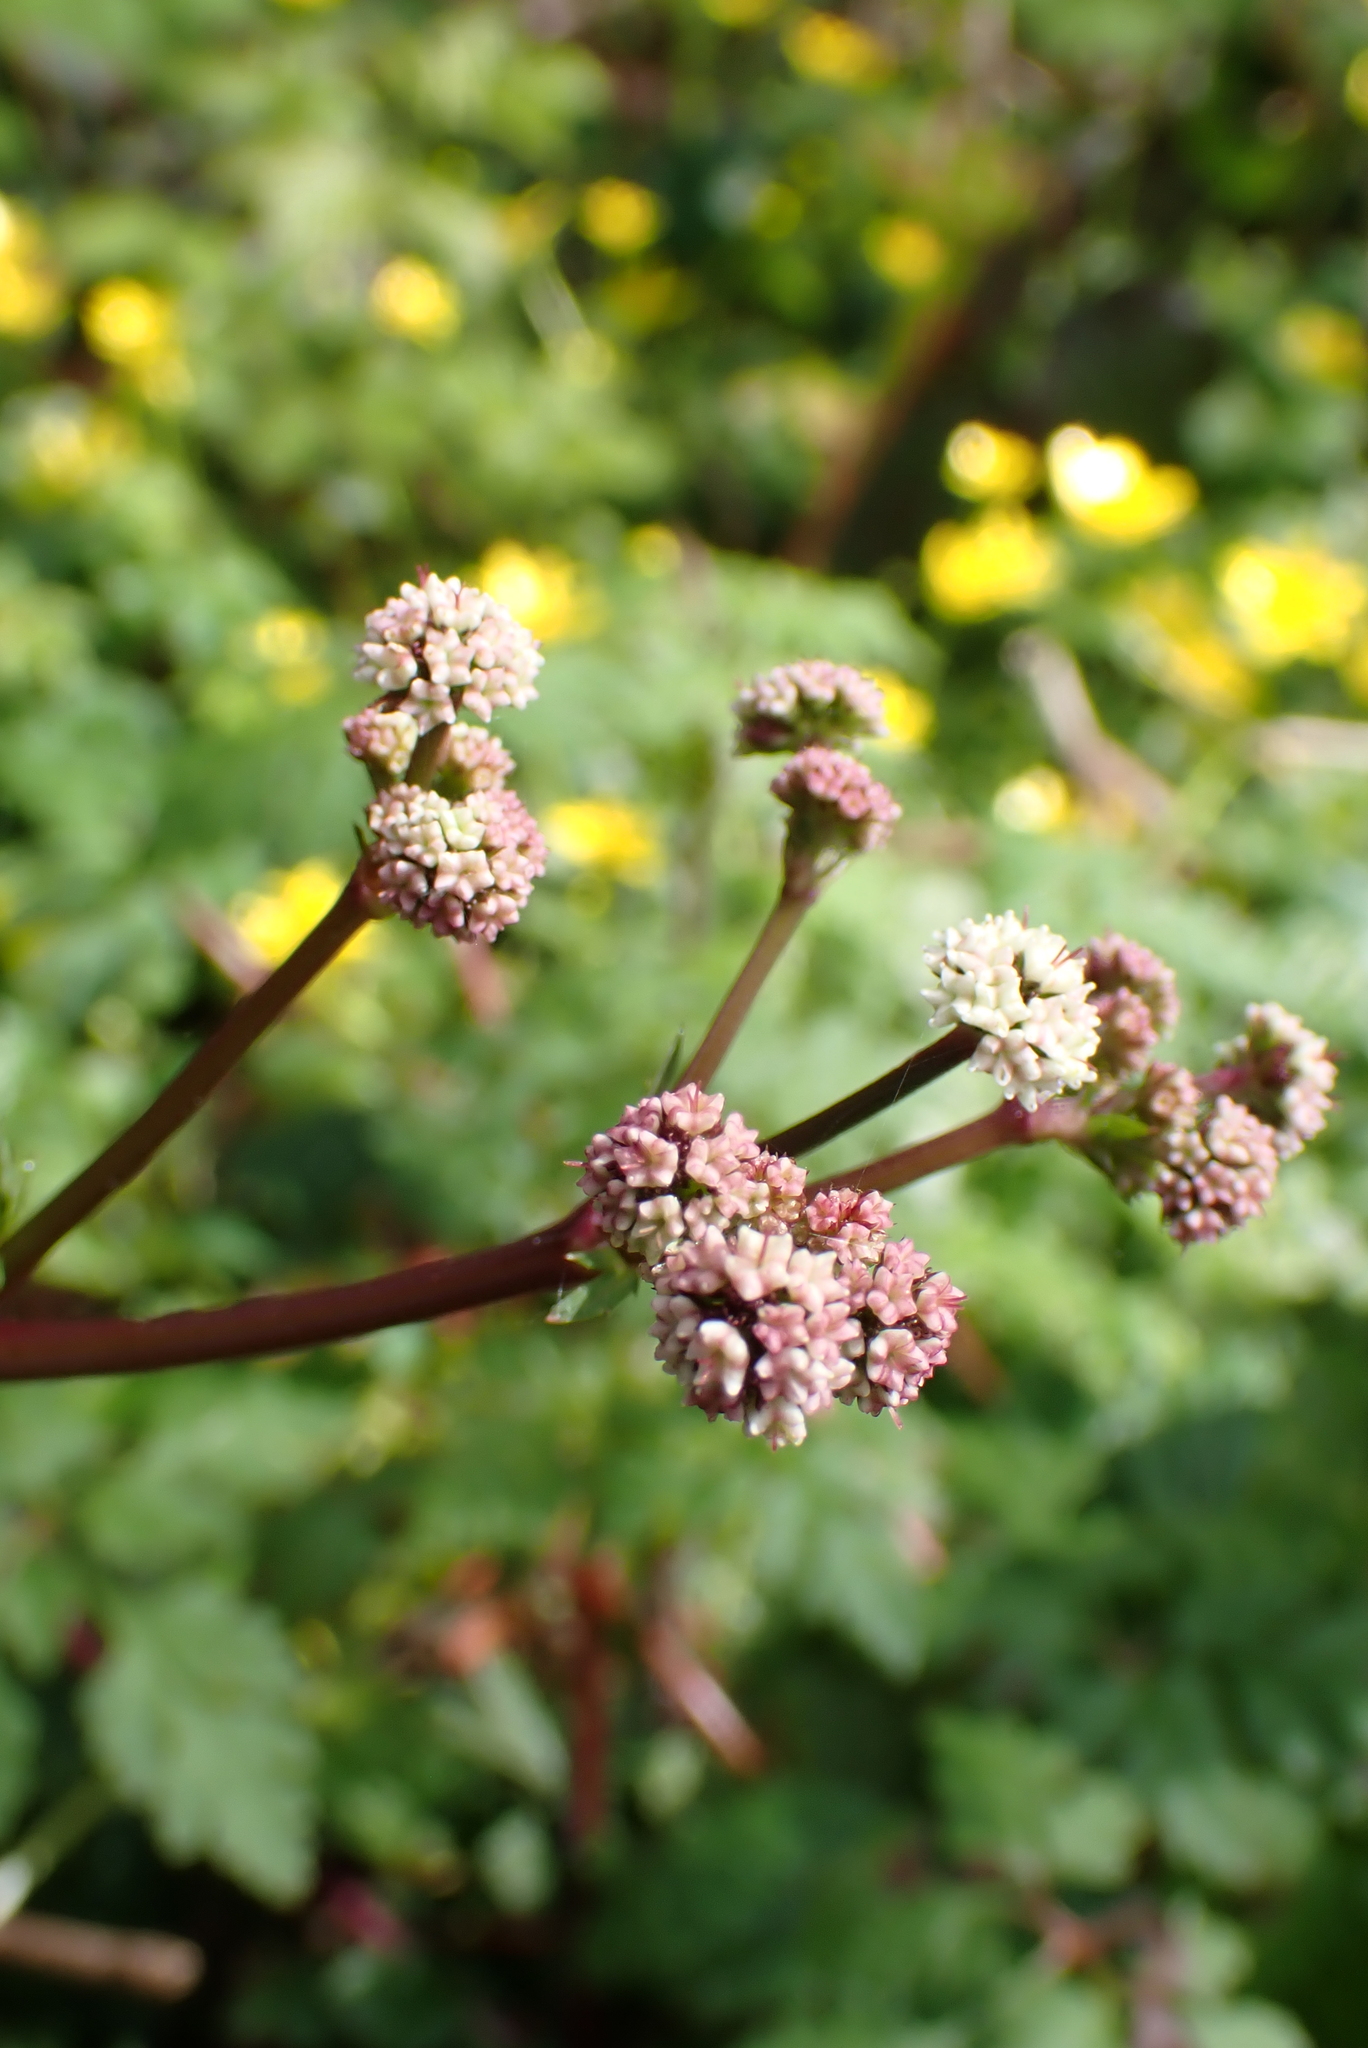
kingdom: Plantae
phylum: Tracheophyta
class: Magnoliopsida
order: Apiales
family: Apiaceae
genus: Sanicula
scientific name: Sanicula europaea
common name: Sanicle
